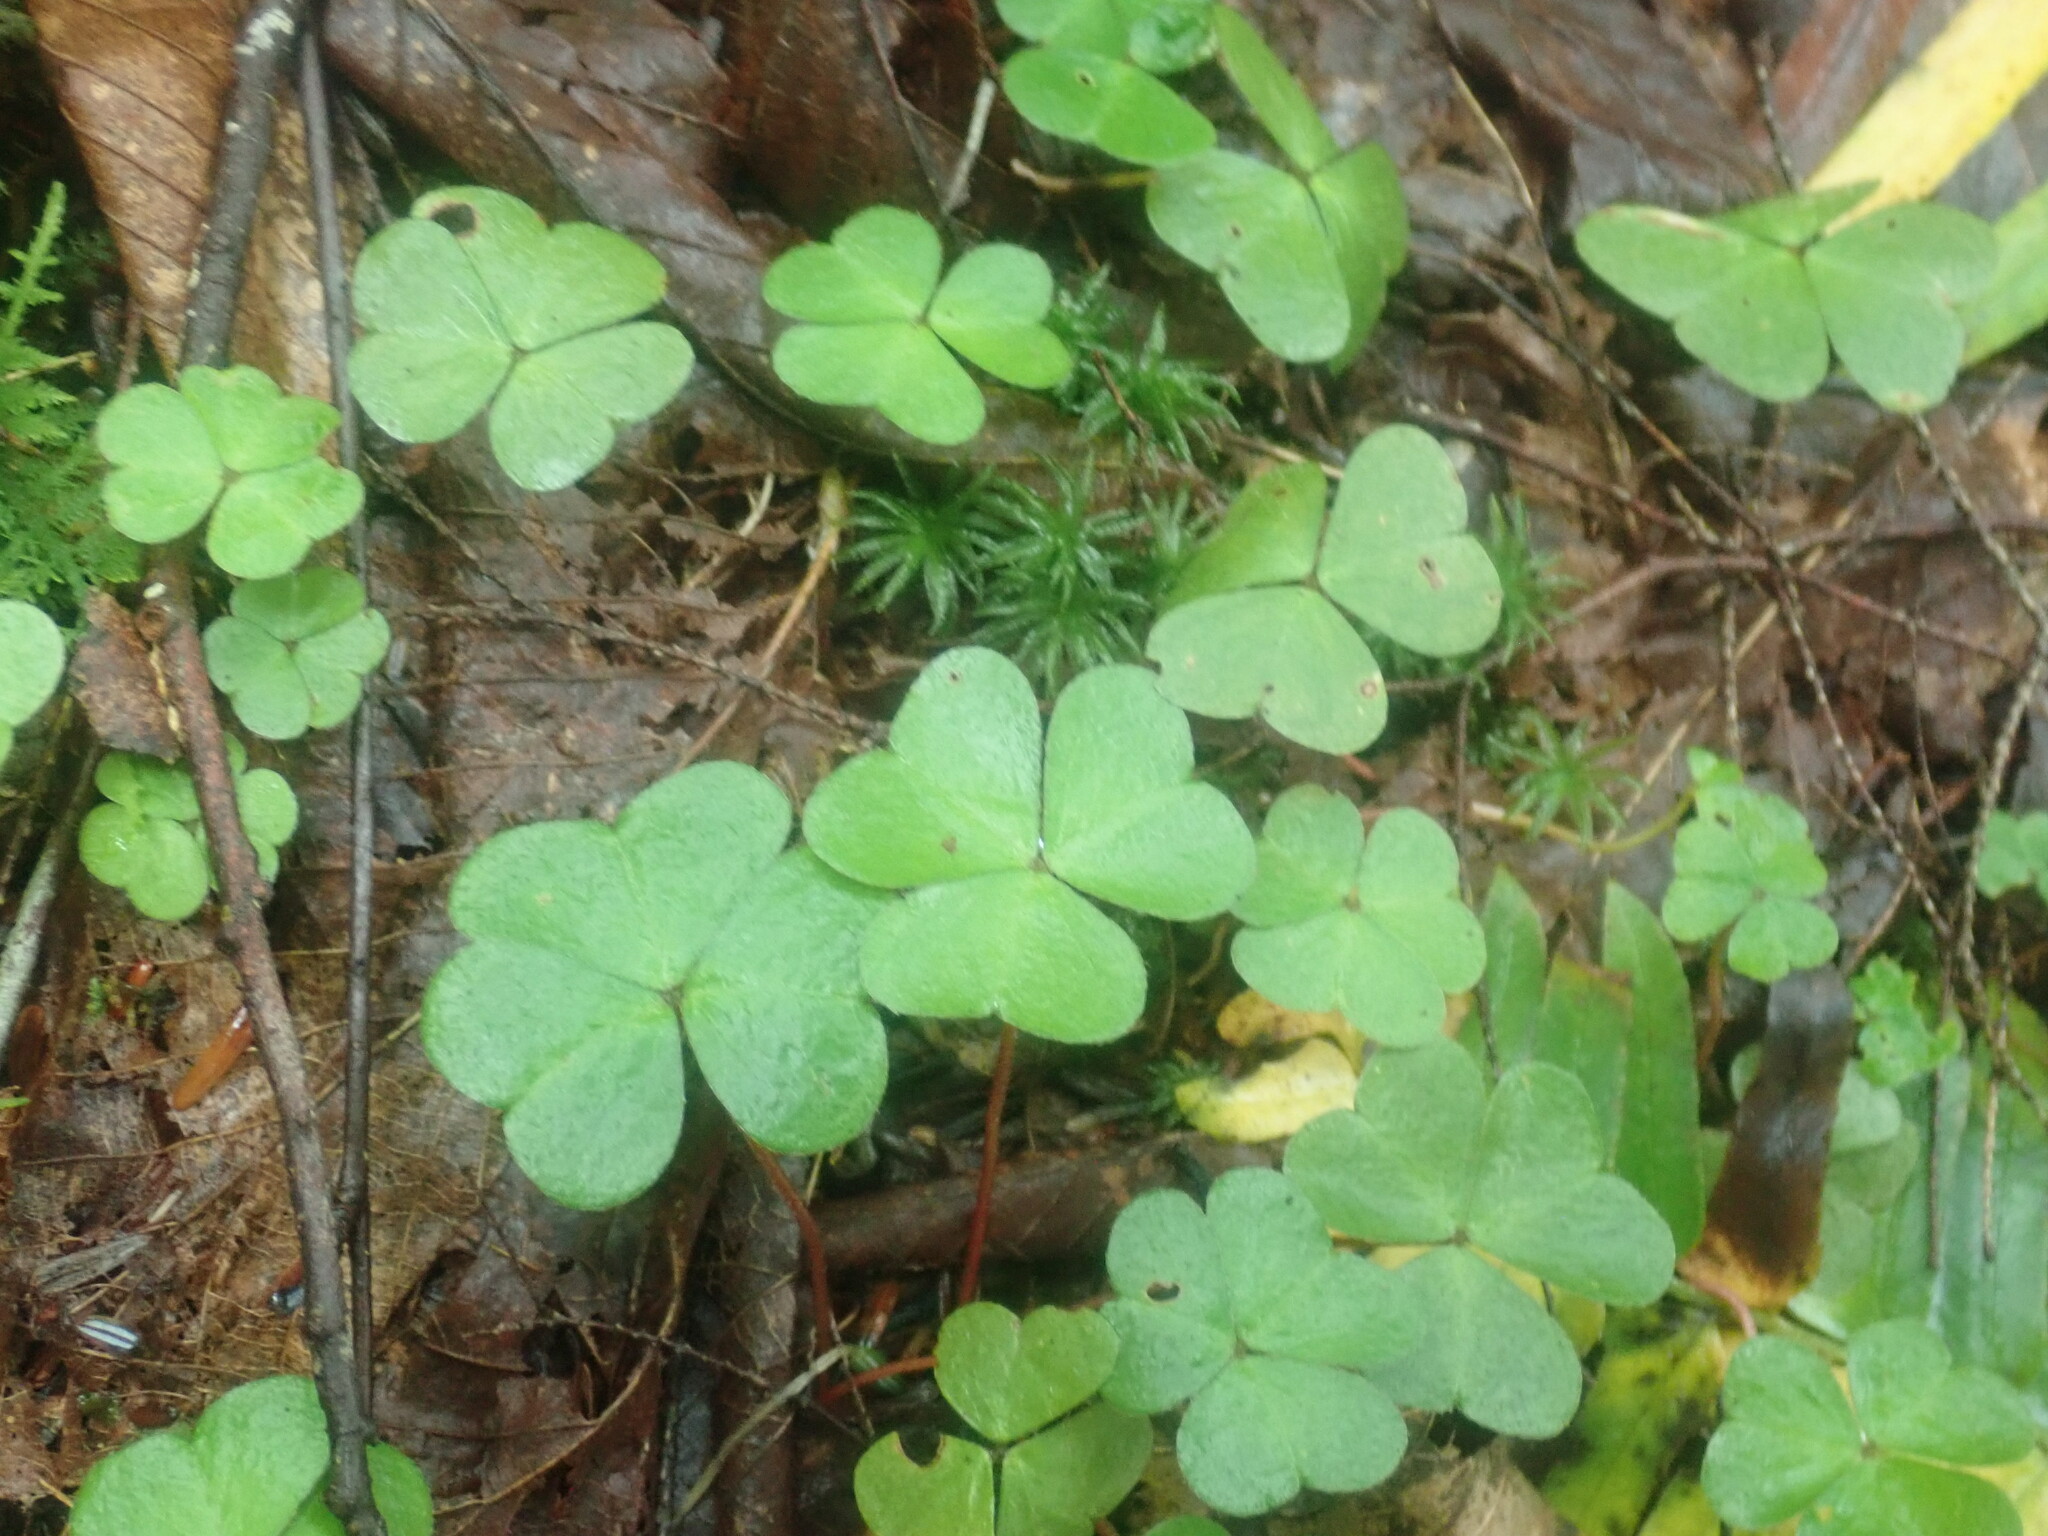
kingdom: Plantae
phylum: Tracheophyta
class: Magnoliopsida
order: Oxalidales
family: Oxalidaceae
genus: Oxalis
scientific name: Oxalis montana
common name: American wood-sorrel
